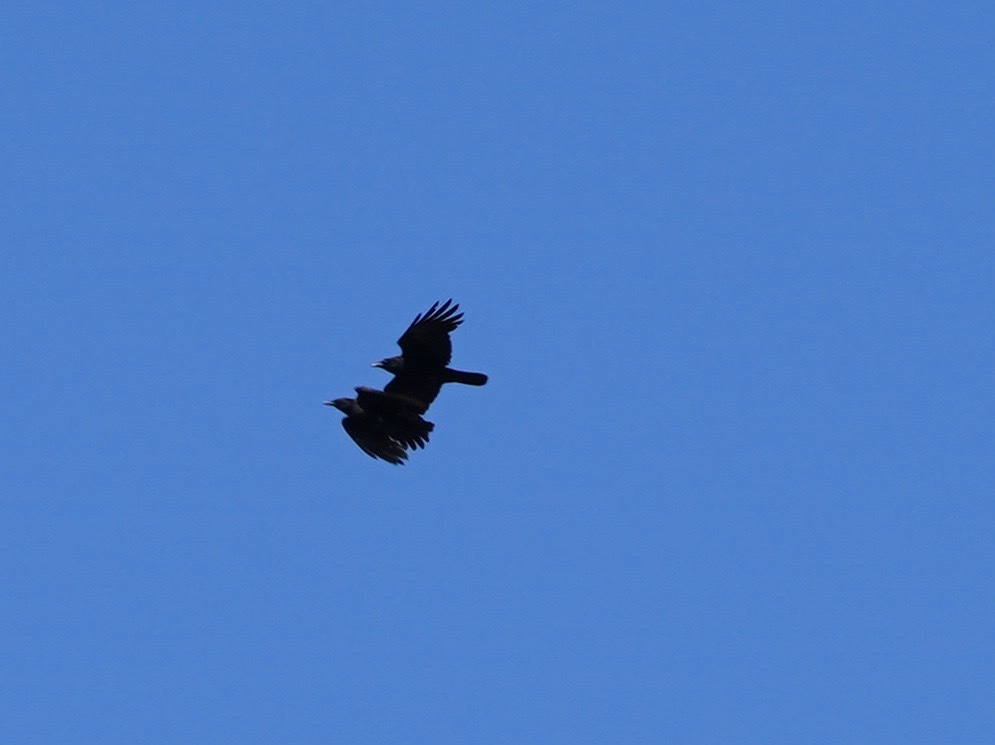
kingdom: Animalia
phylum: Chordata
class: Aves
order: Passeriformes
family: Corvidae
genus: Corvus
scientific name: Corvus brachyrhynchos
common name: American crow
